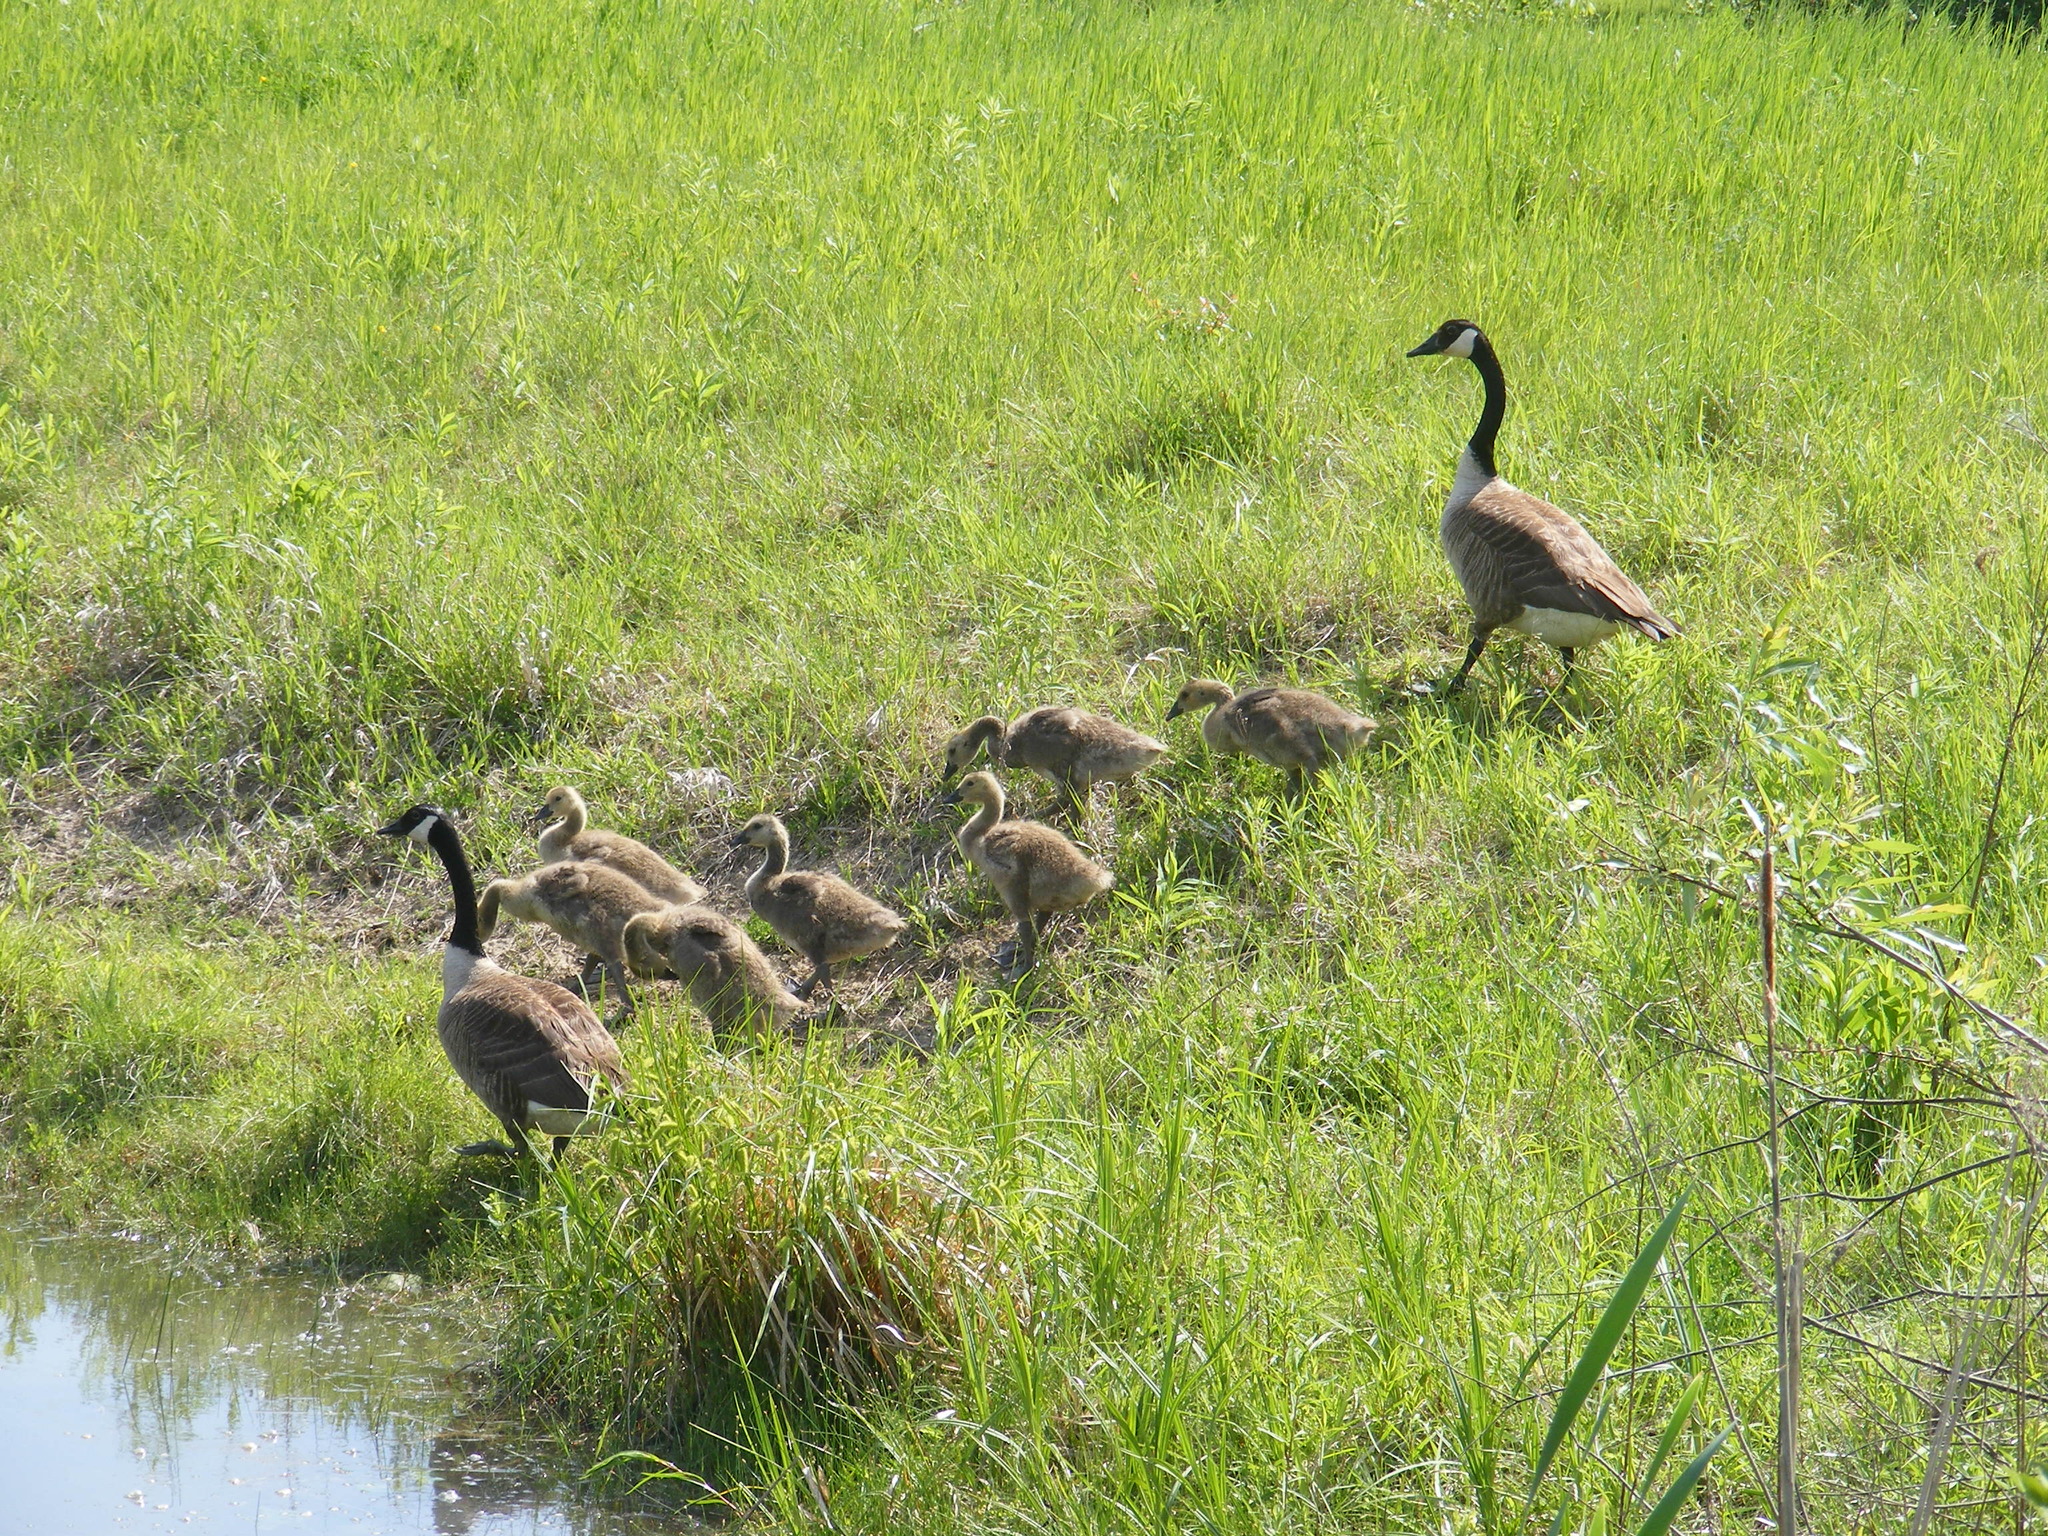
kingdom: Animalia
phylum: Chordata
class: Aves
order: Anseriformes
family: Anatidae
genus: Branta
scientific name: Branta canadensis
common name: Canada goose
